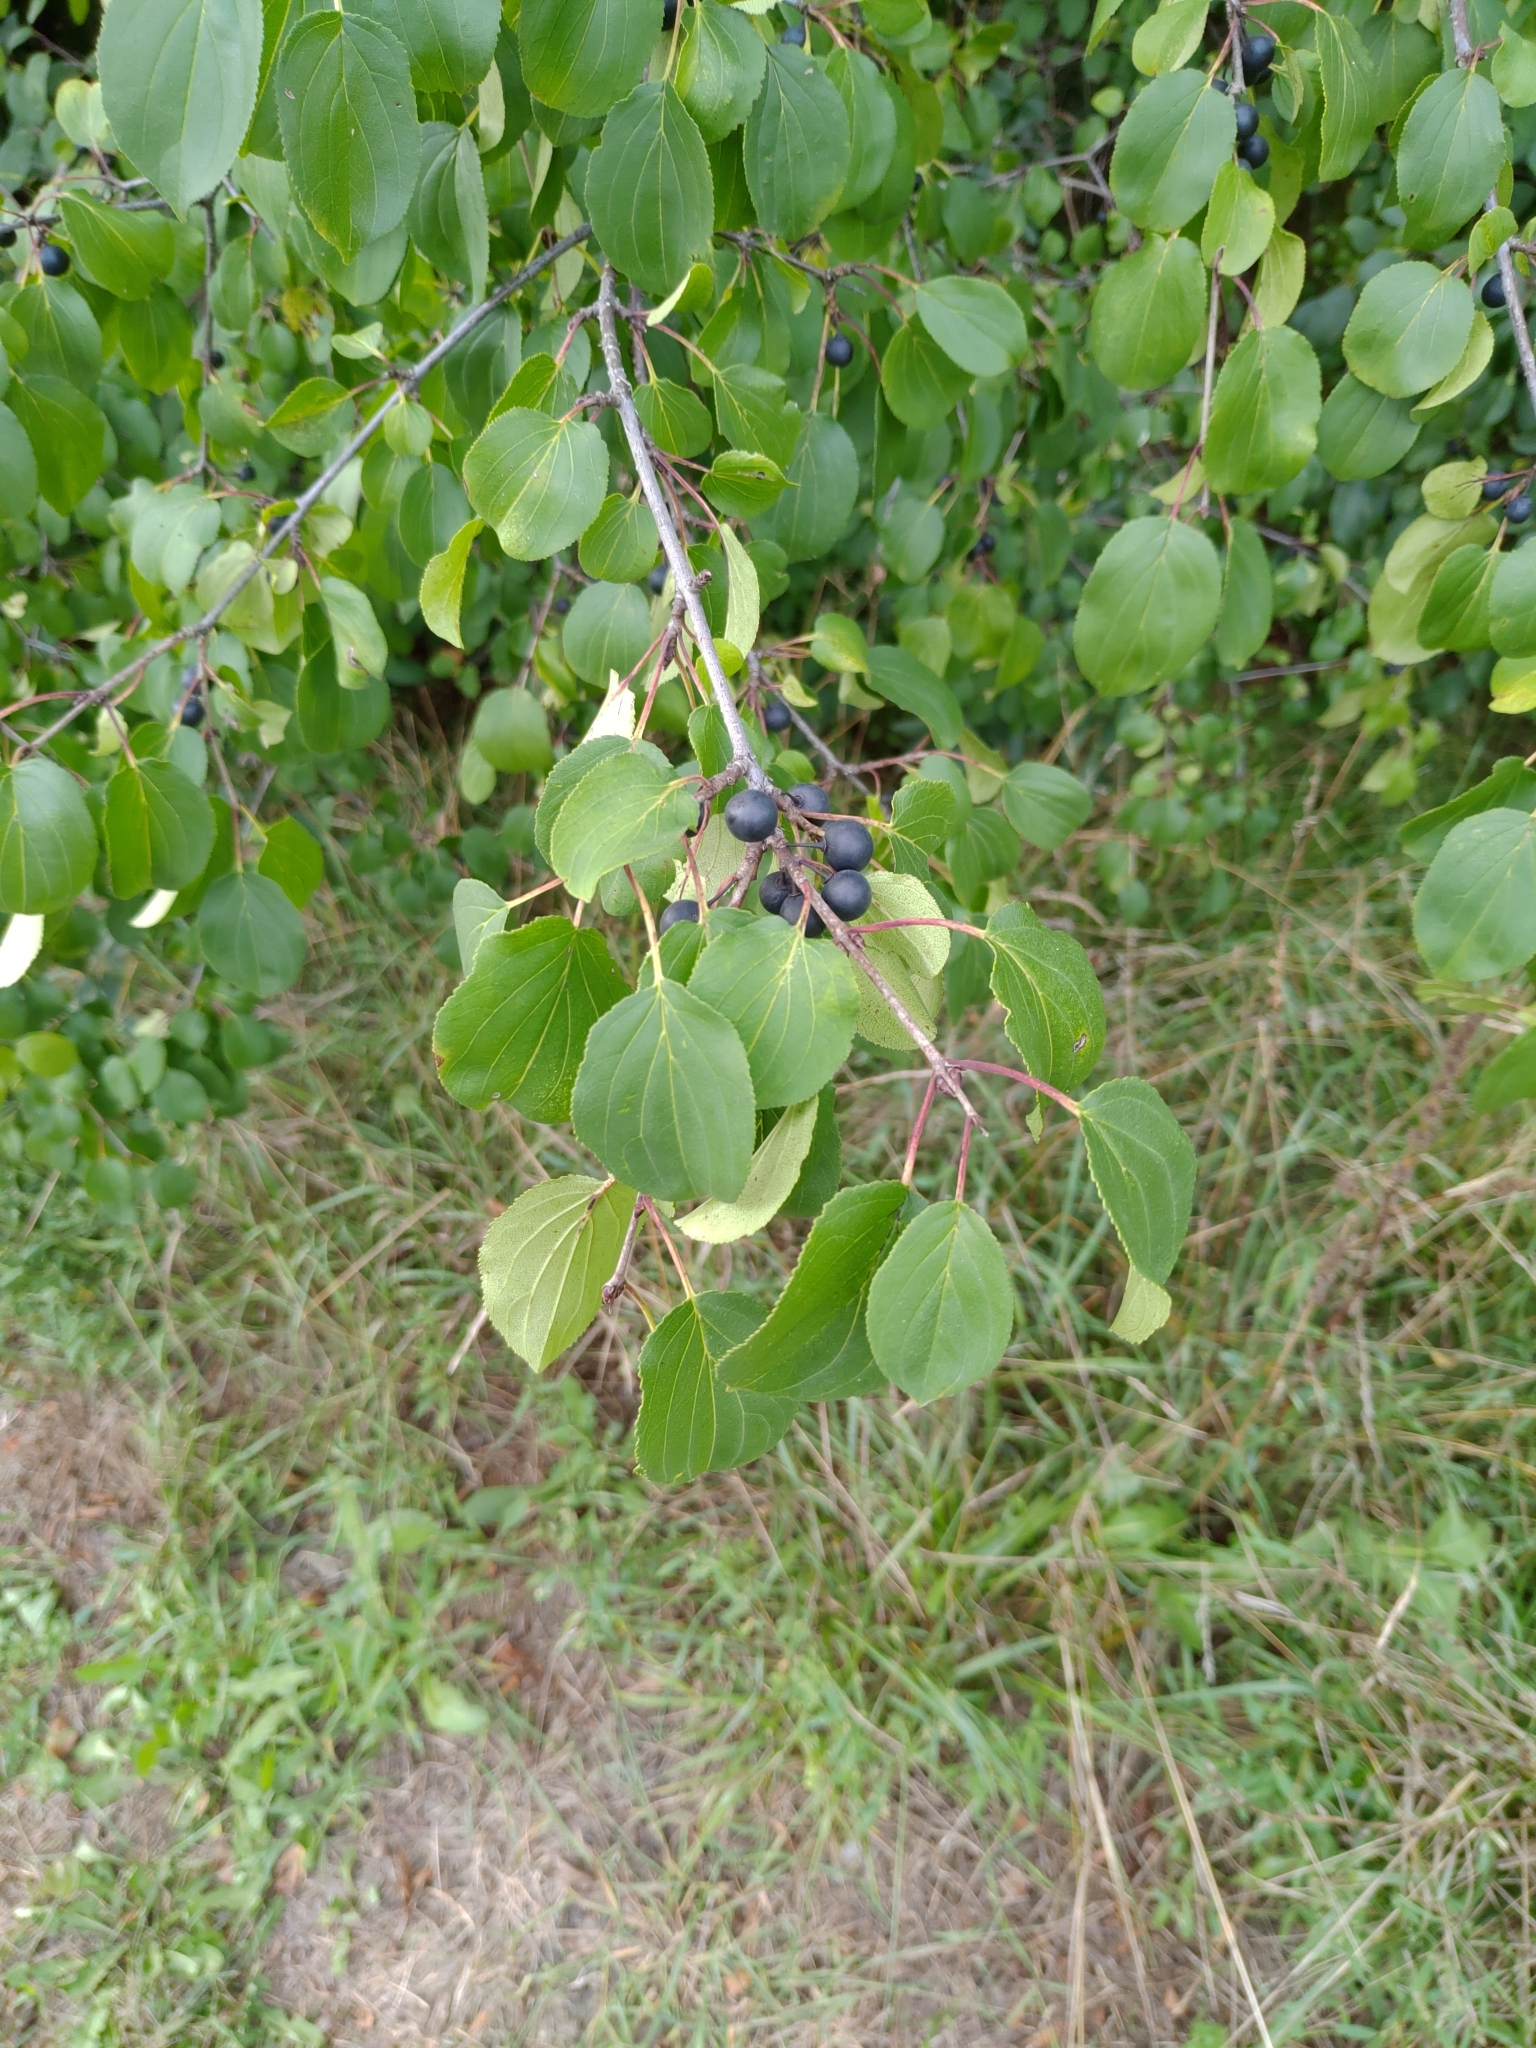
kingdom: Plantae
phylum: Tracheophyta
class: Magnoliopsida
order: Rosales
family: Rhamnaceae
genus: Rhamnus
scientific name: Rhamnus cathartica
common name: Common buckthorn
